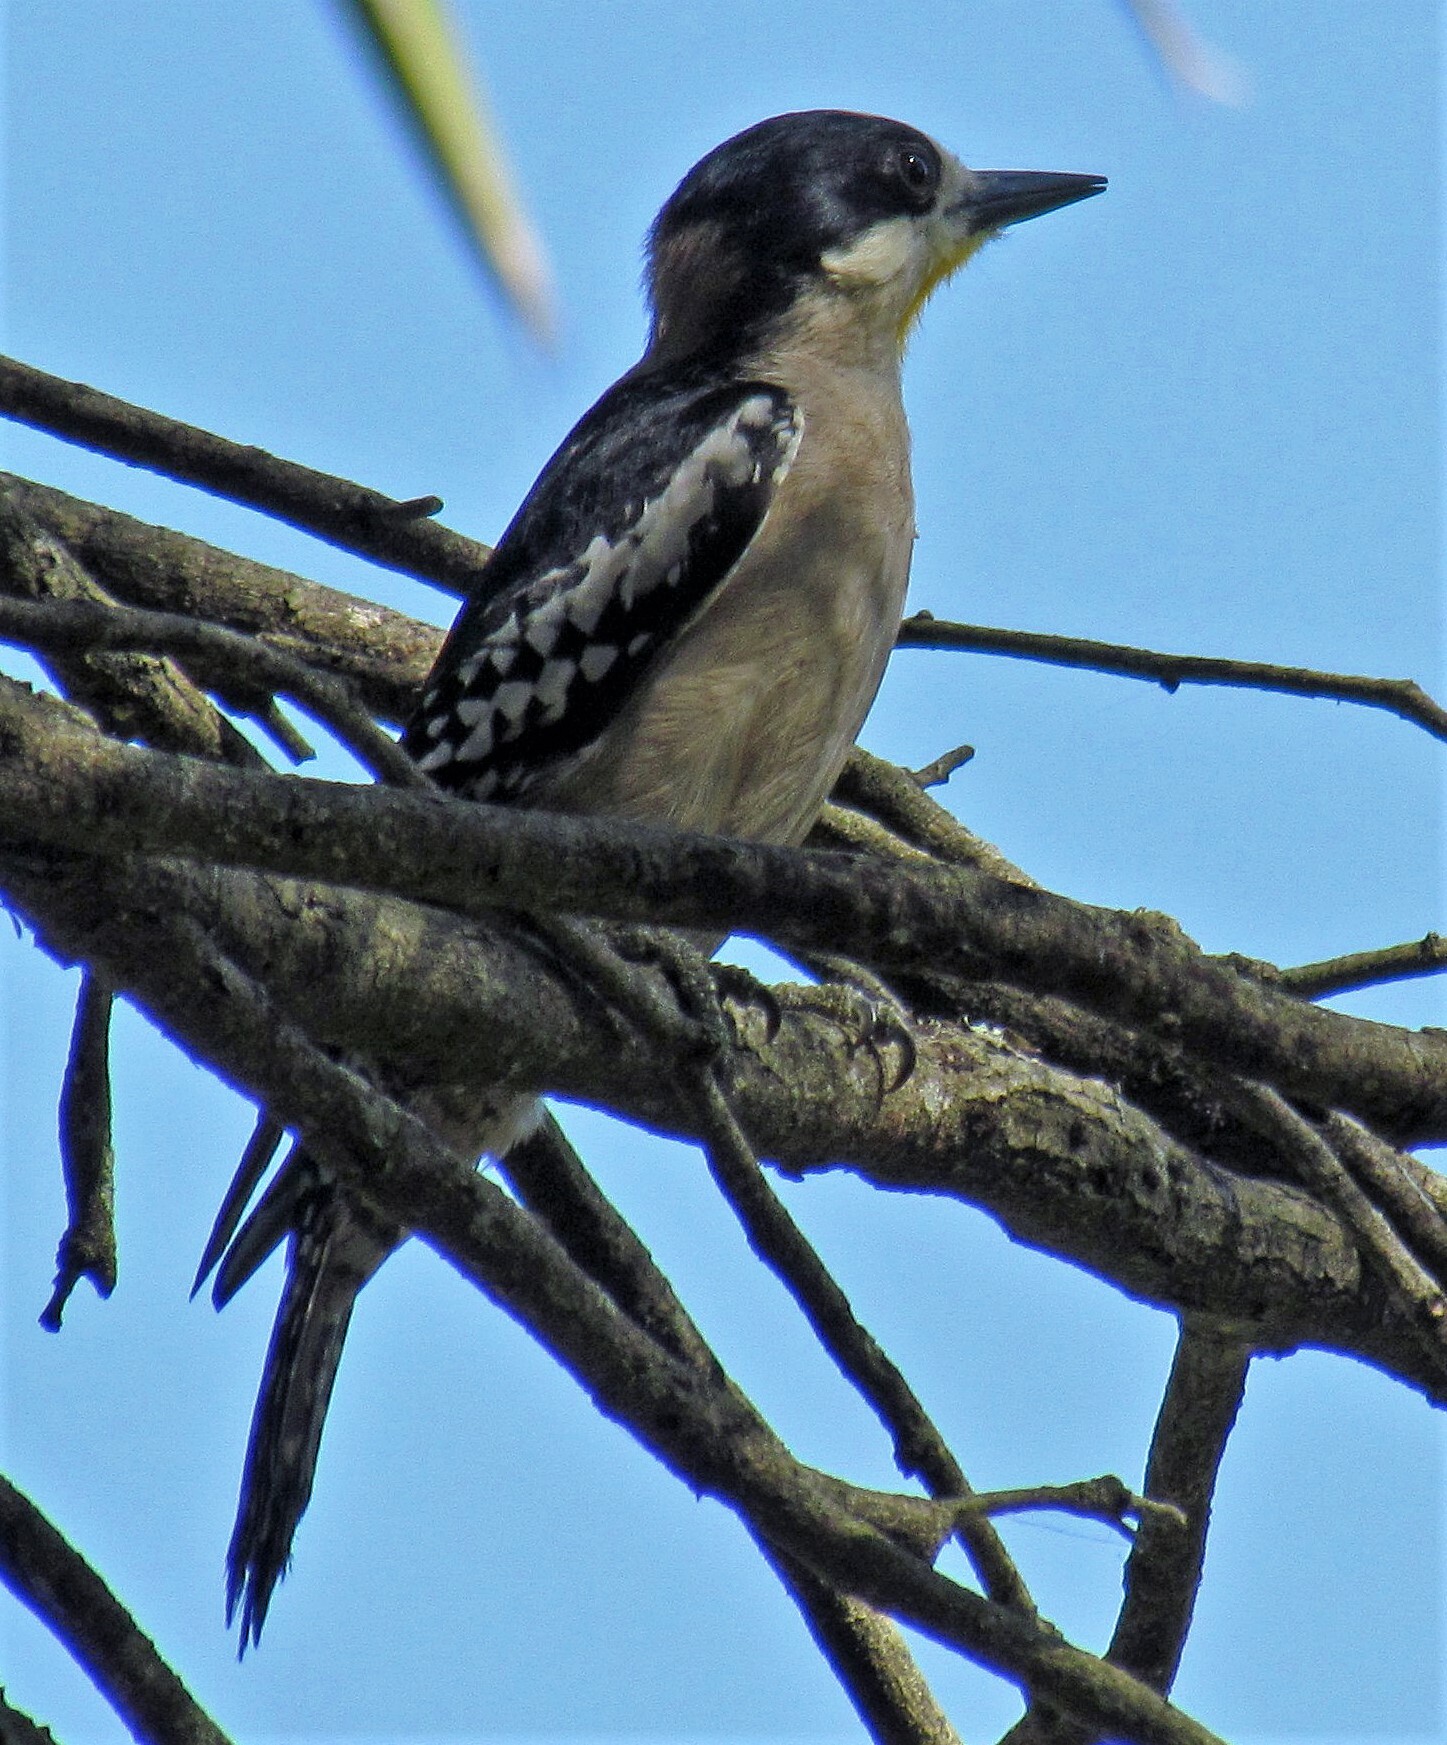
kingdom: Animalia
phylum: Chordata
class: Aves
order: Piciformes
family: Picidae
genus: Melanerpes
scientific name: Melanerpes cactorum
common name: White-fronted woodpecker
